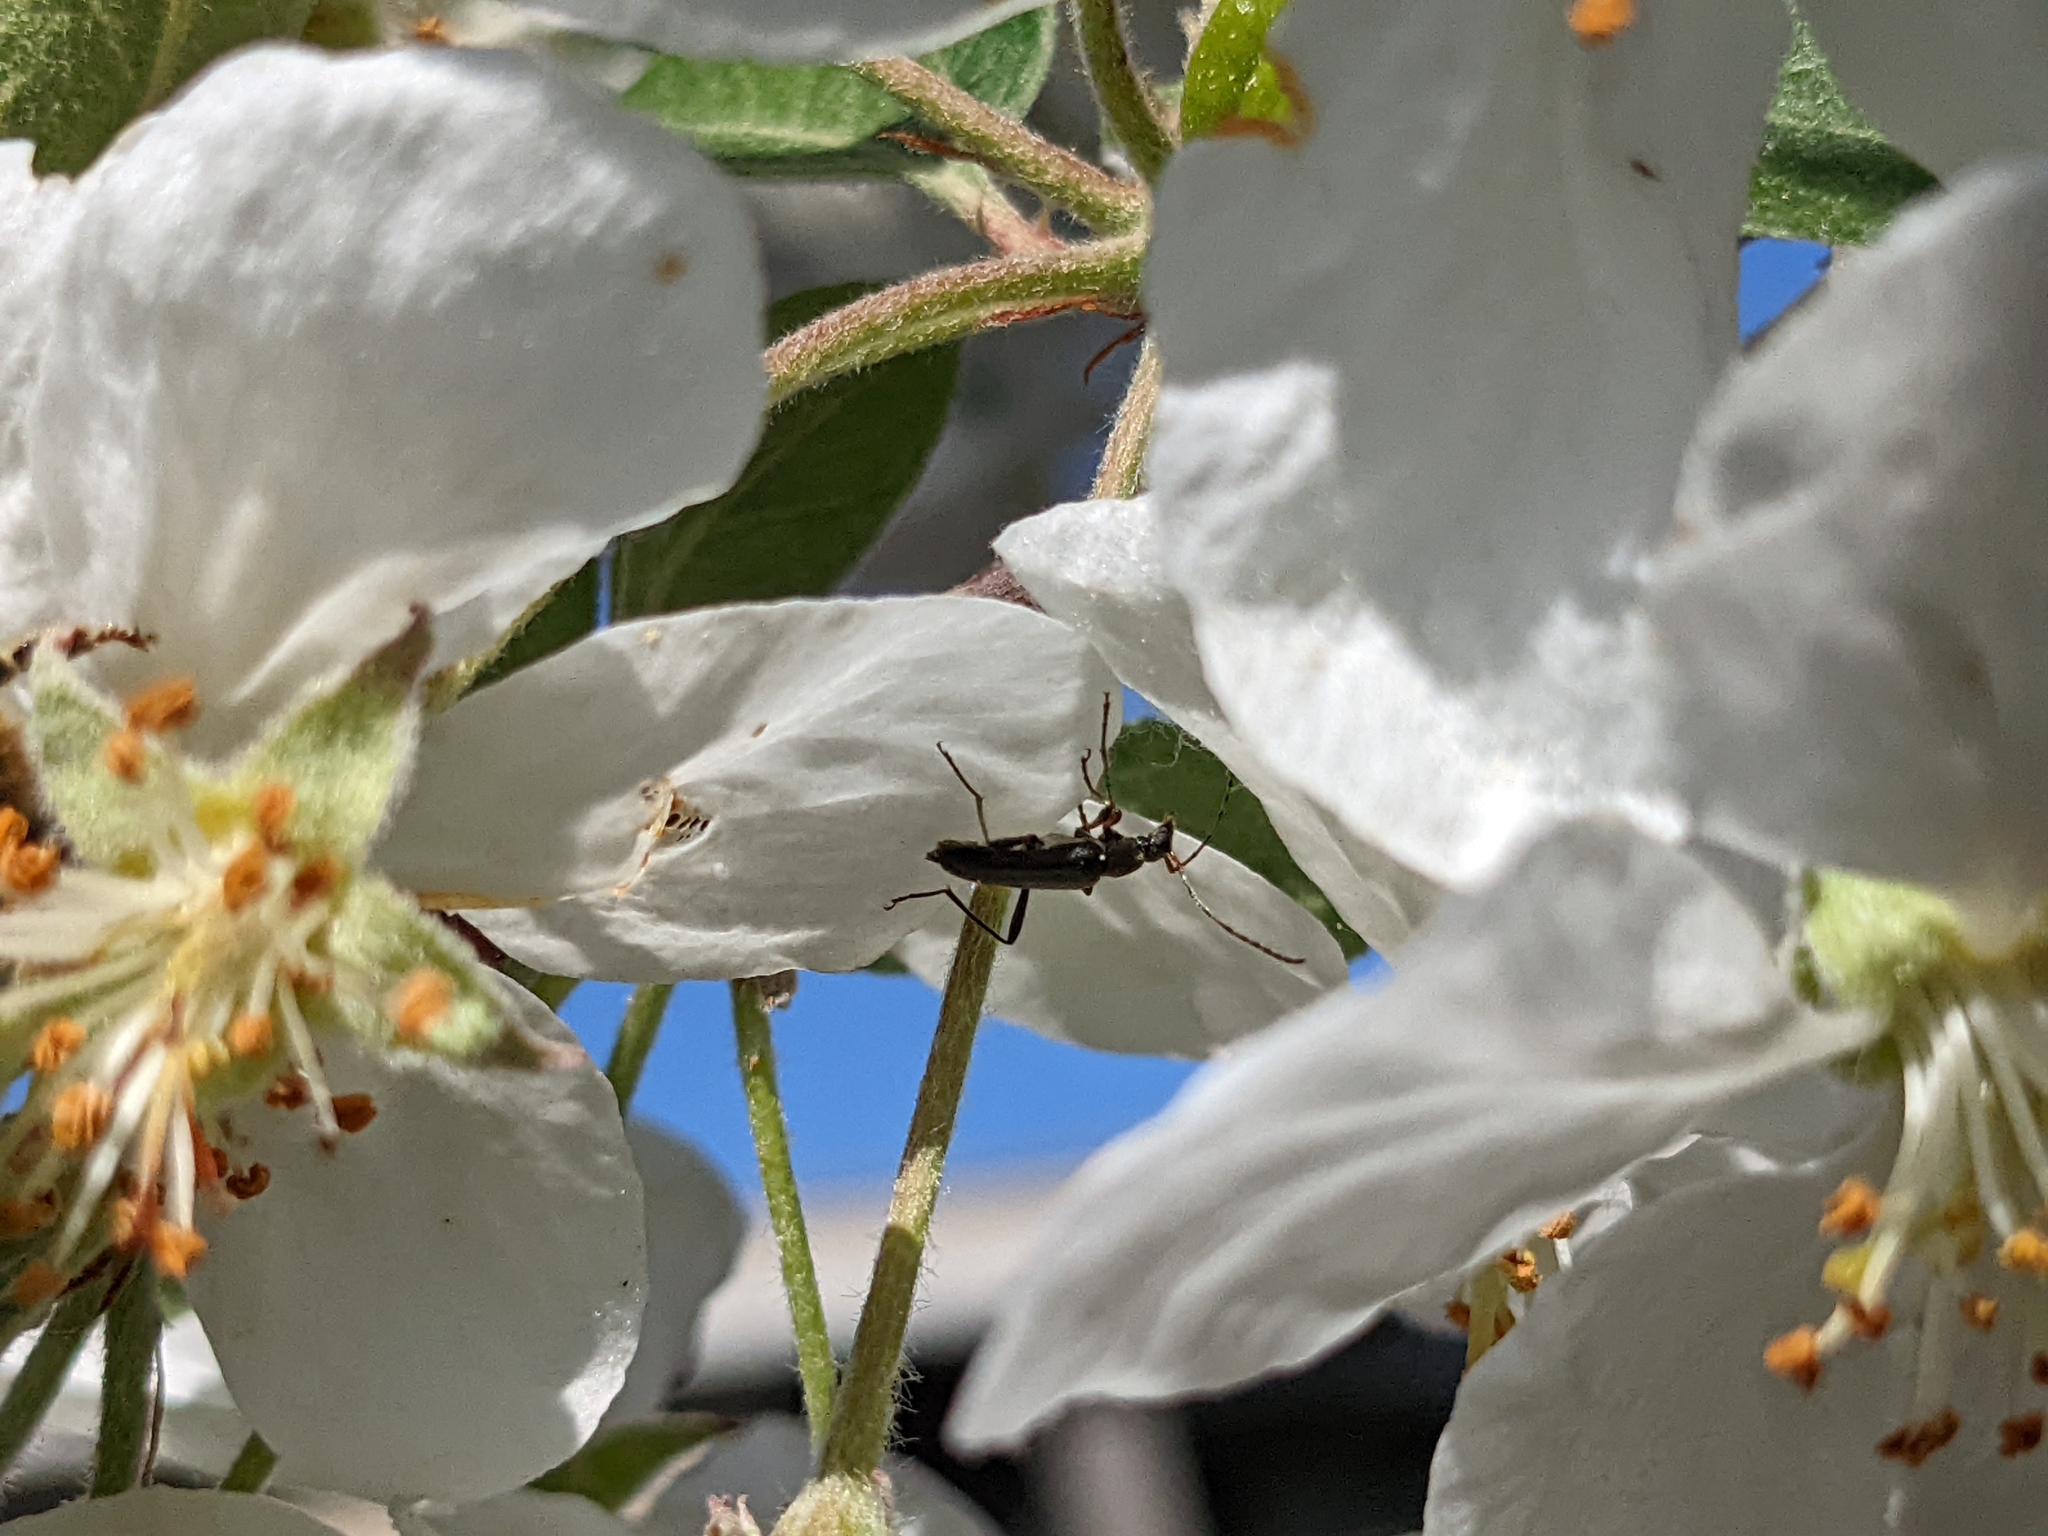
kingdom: Animalia
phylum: Arthropoda
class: Insecta
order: Coleoptera
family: Cerambycidae
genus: Grammoptera
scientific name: Grammoptera ruficornis
